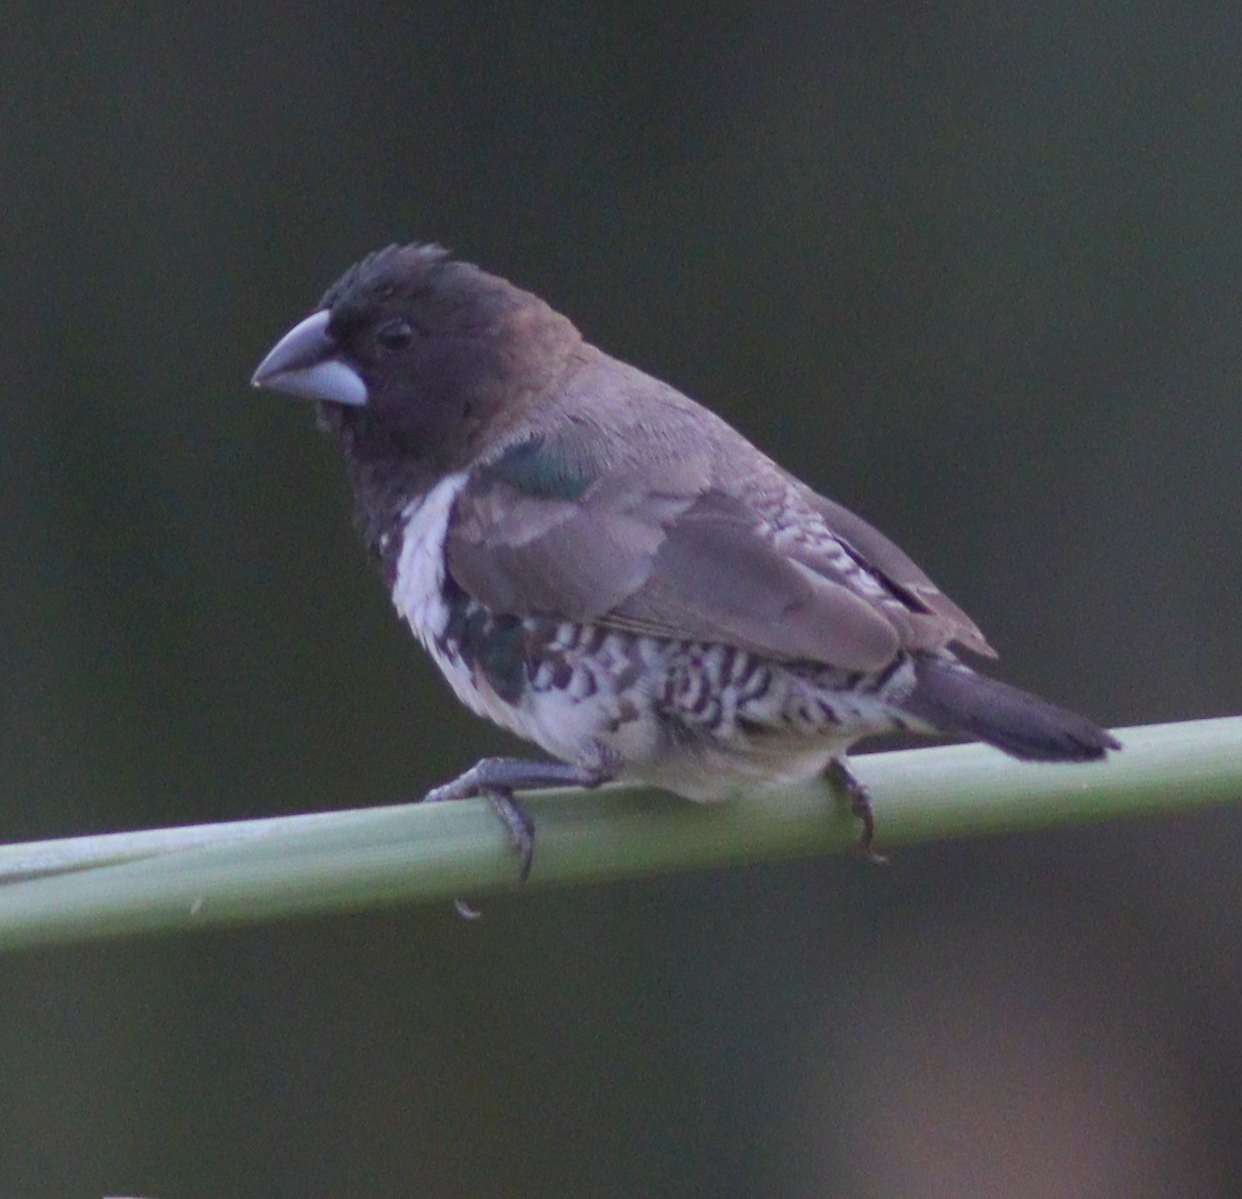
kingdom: Animalia
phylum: Chordata
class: Aves
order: Passeriformes
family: Estrildidae
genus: Lonchura
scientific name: Lonchura cucullata
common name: Bronze mannikin
